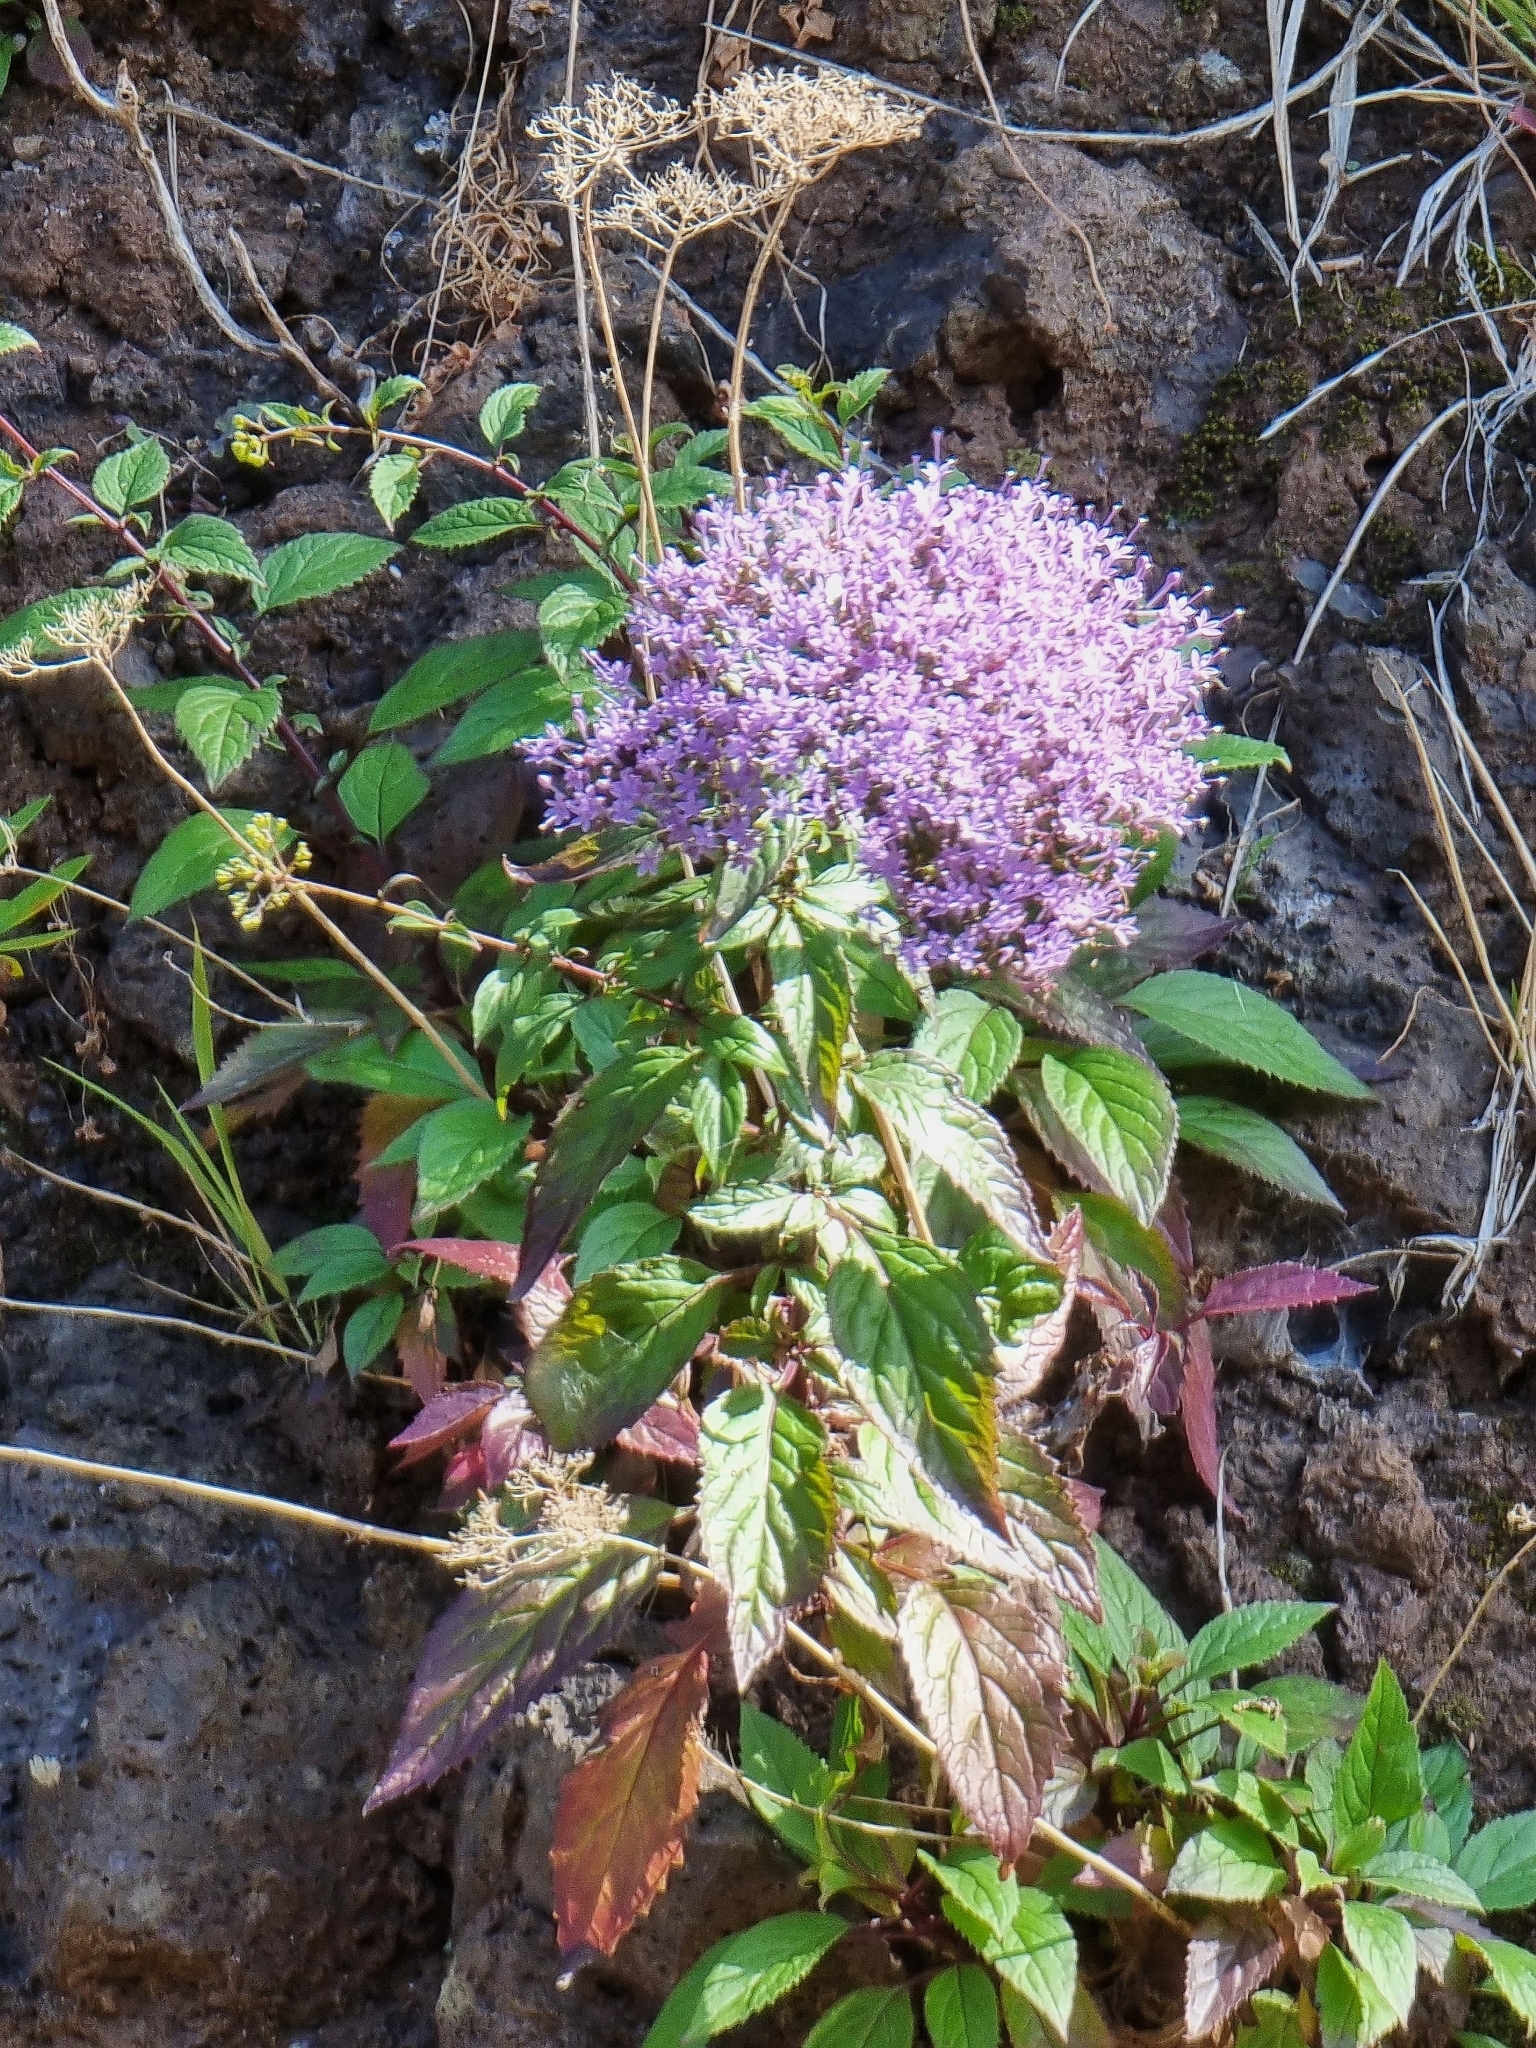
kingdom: Plantae
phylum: Tracheophyta
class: Magnoliopsida
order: Asterales
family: Campanulaceae
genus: Trachelium
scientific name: Trachelium caeruleum
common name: Throatwort
